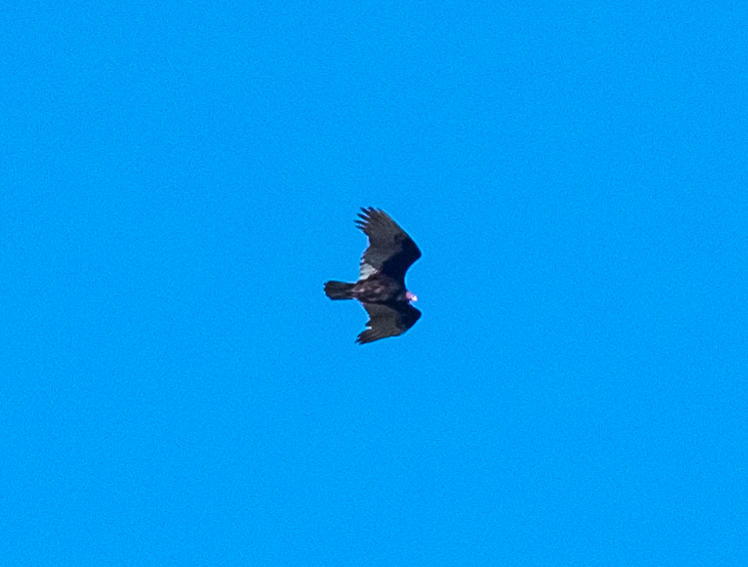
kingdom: Animalia
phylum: Chordata
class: Aves
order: Accipitriformes
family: Cathartidae
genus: Cathartes
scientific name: Cathartes aura
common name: Turkey vulture
